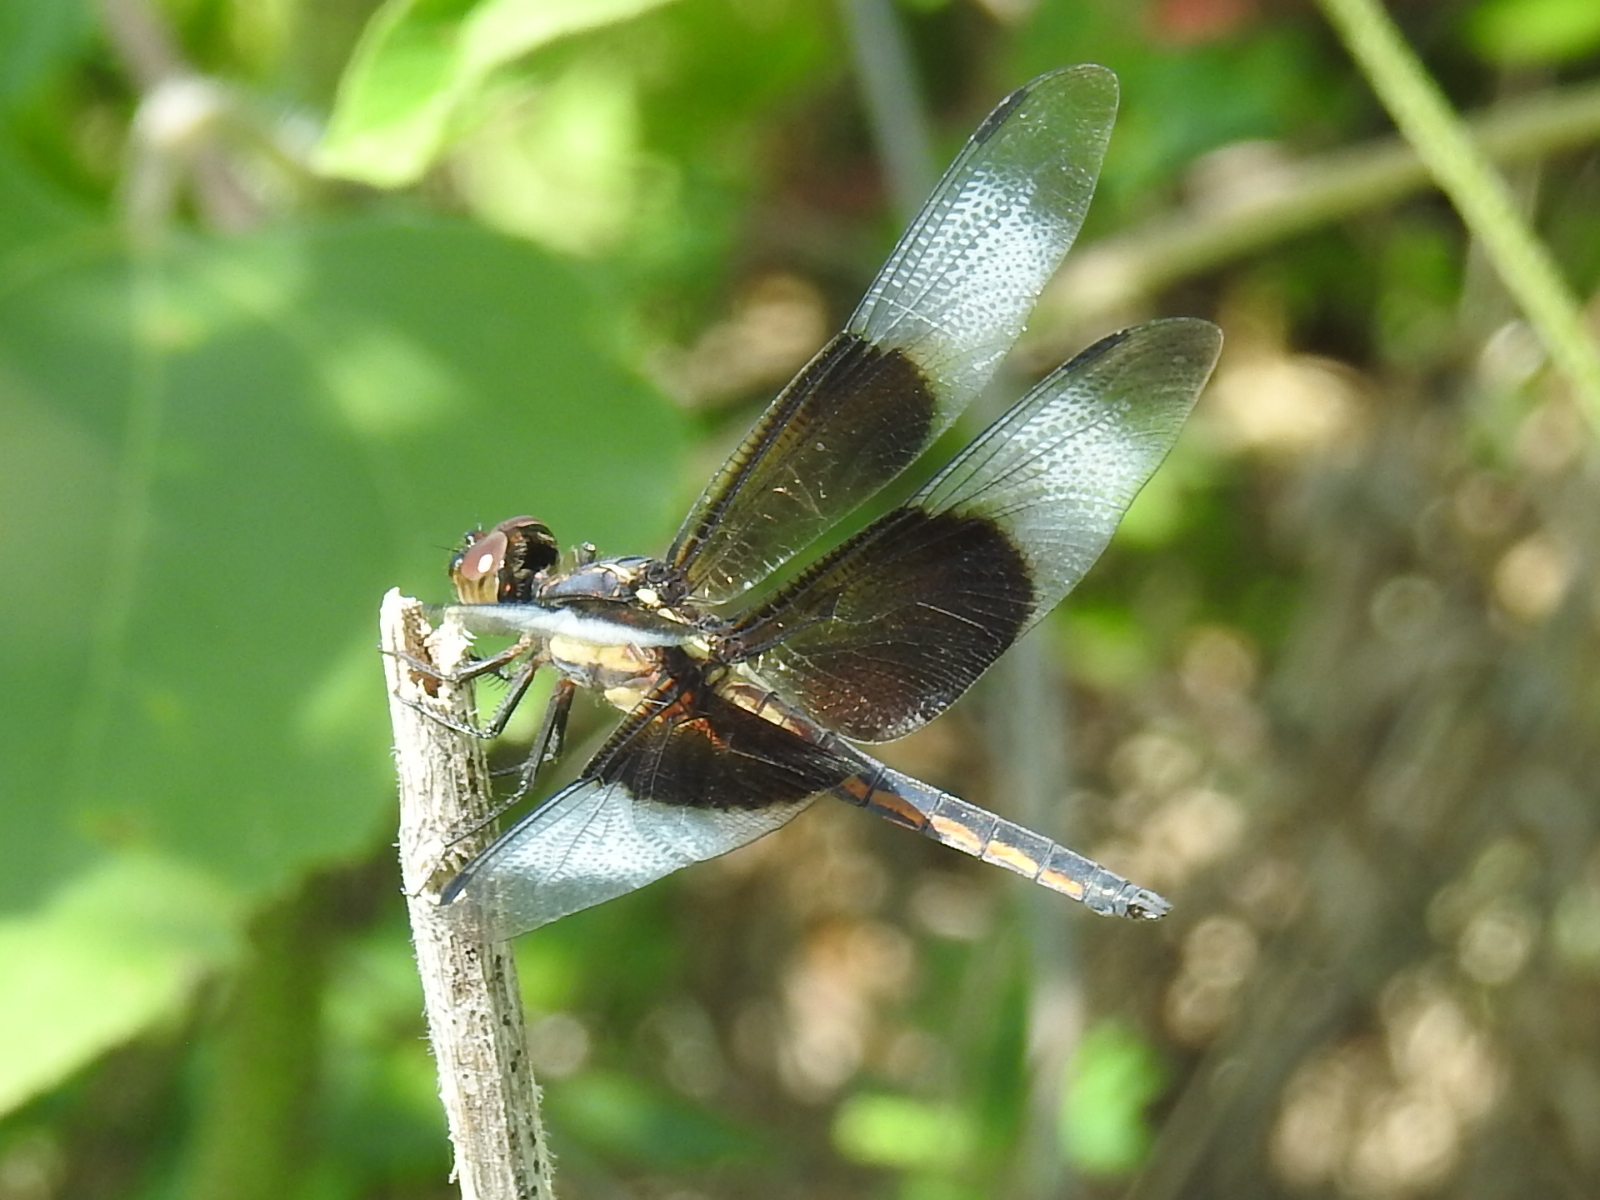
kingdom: Animalia
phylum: Arthropoda
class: Insecta
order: Odonata
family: Libellulidae
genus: Libellula
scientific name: Libellula luctuosa
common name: Widow skimmer
